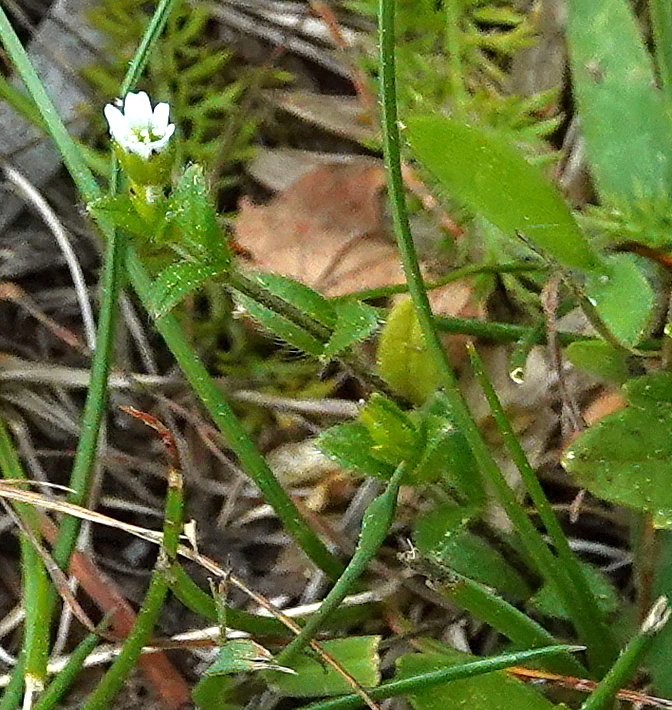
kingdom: Plantae
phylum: Tracheophyta
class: Magnoliopsida
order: Caryophyllales
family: Caryophyllaceae
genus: Cerastium
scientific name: Cerastium holosteoides
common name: Big chickweed
